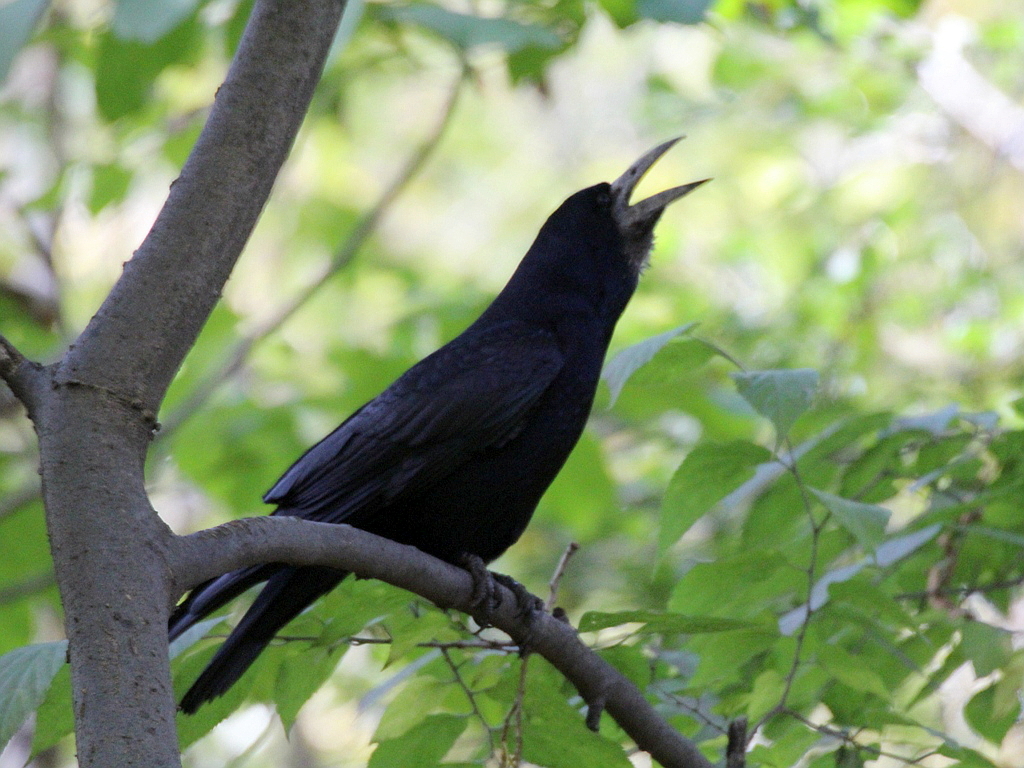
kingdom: Animalia
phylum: Chordata
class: Aves
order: Passeriformes
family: Corvidae
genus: Corvus
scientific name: Corvus frugilegus
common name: Rook
